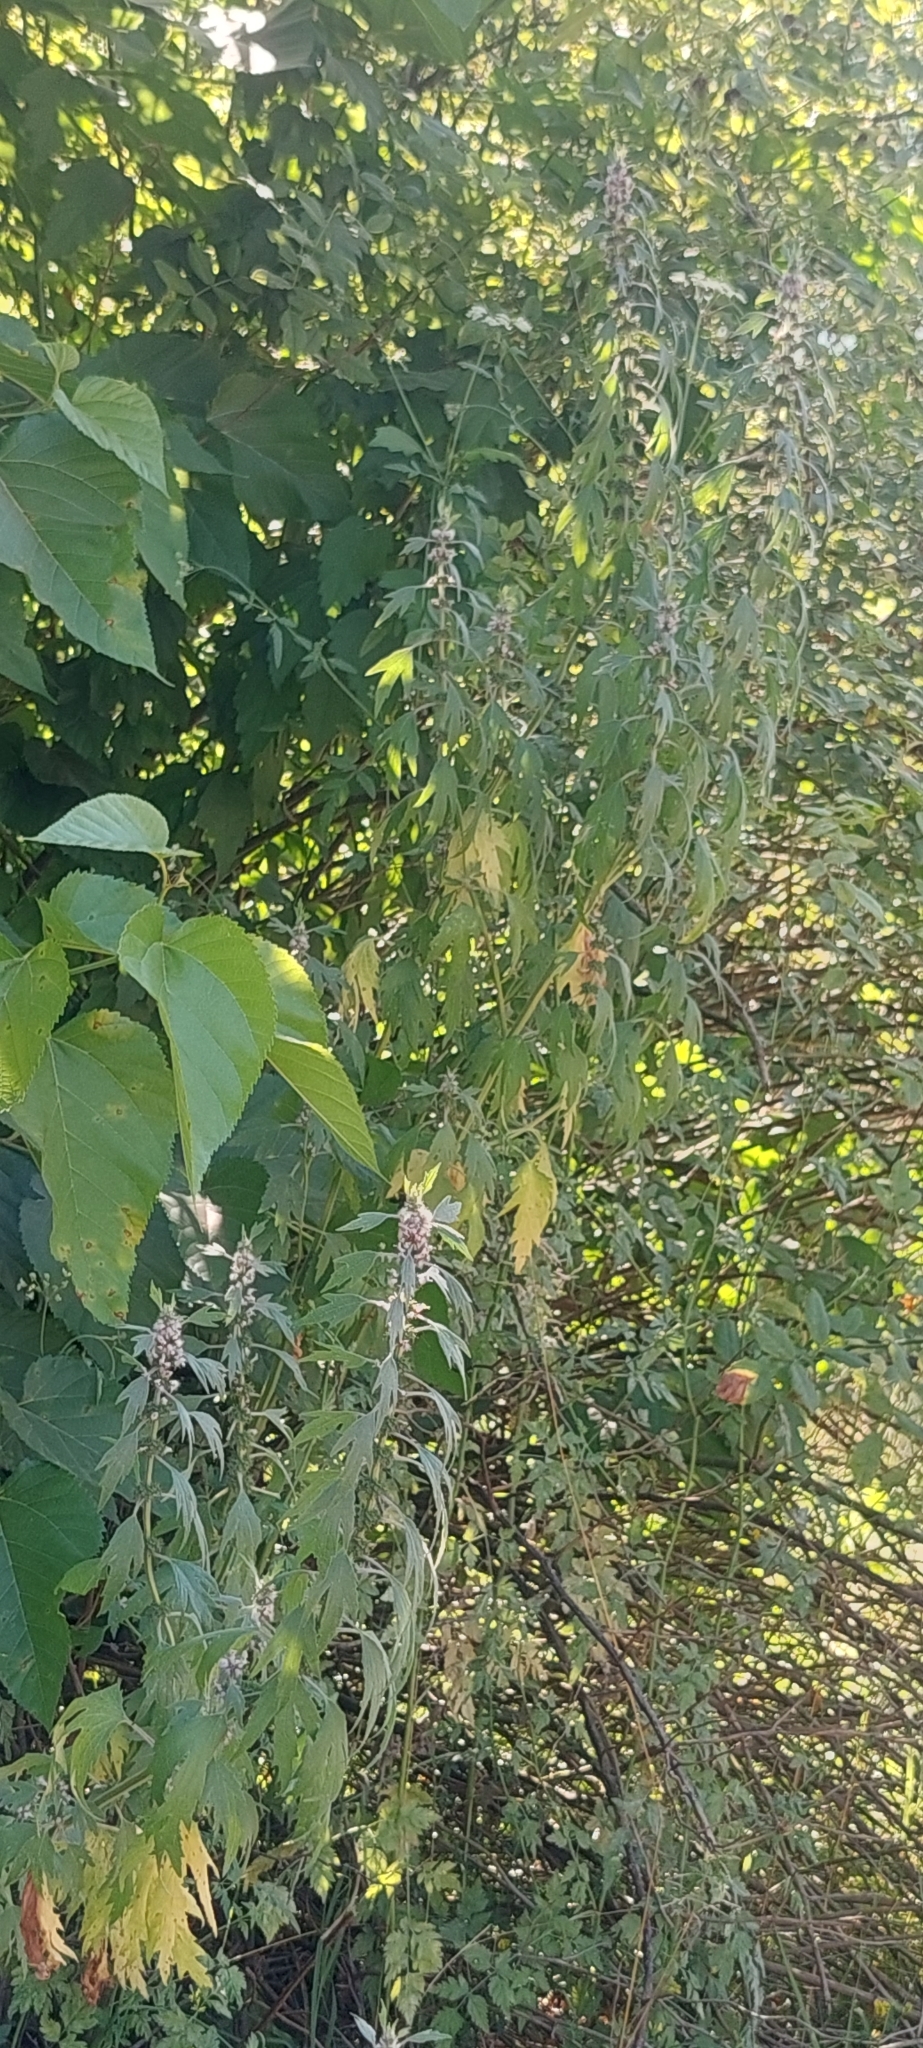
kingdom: Plantae
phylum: Tracheophyta
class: Magnoliopsida
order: Lamiales
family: Lamiaceae
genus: Leonurus
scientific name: Leonurus quinquelobatus
